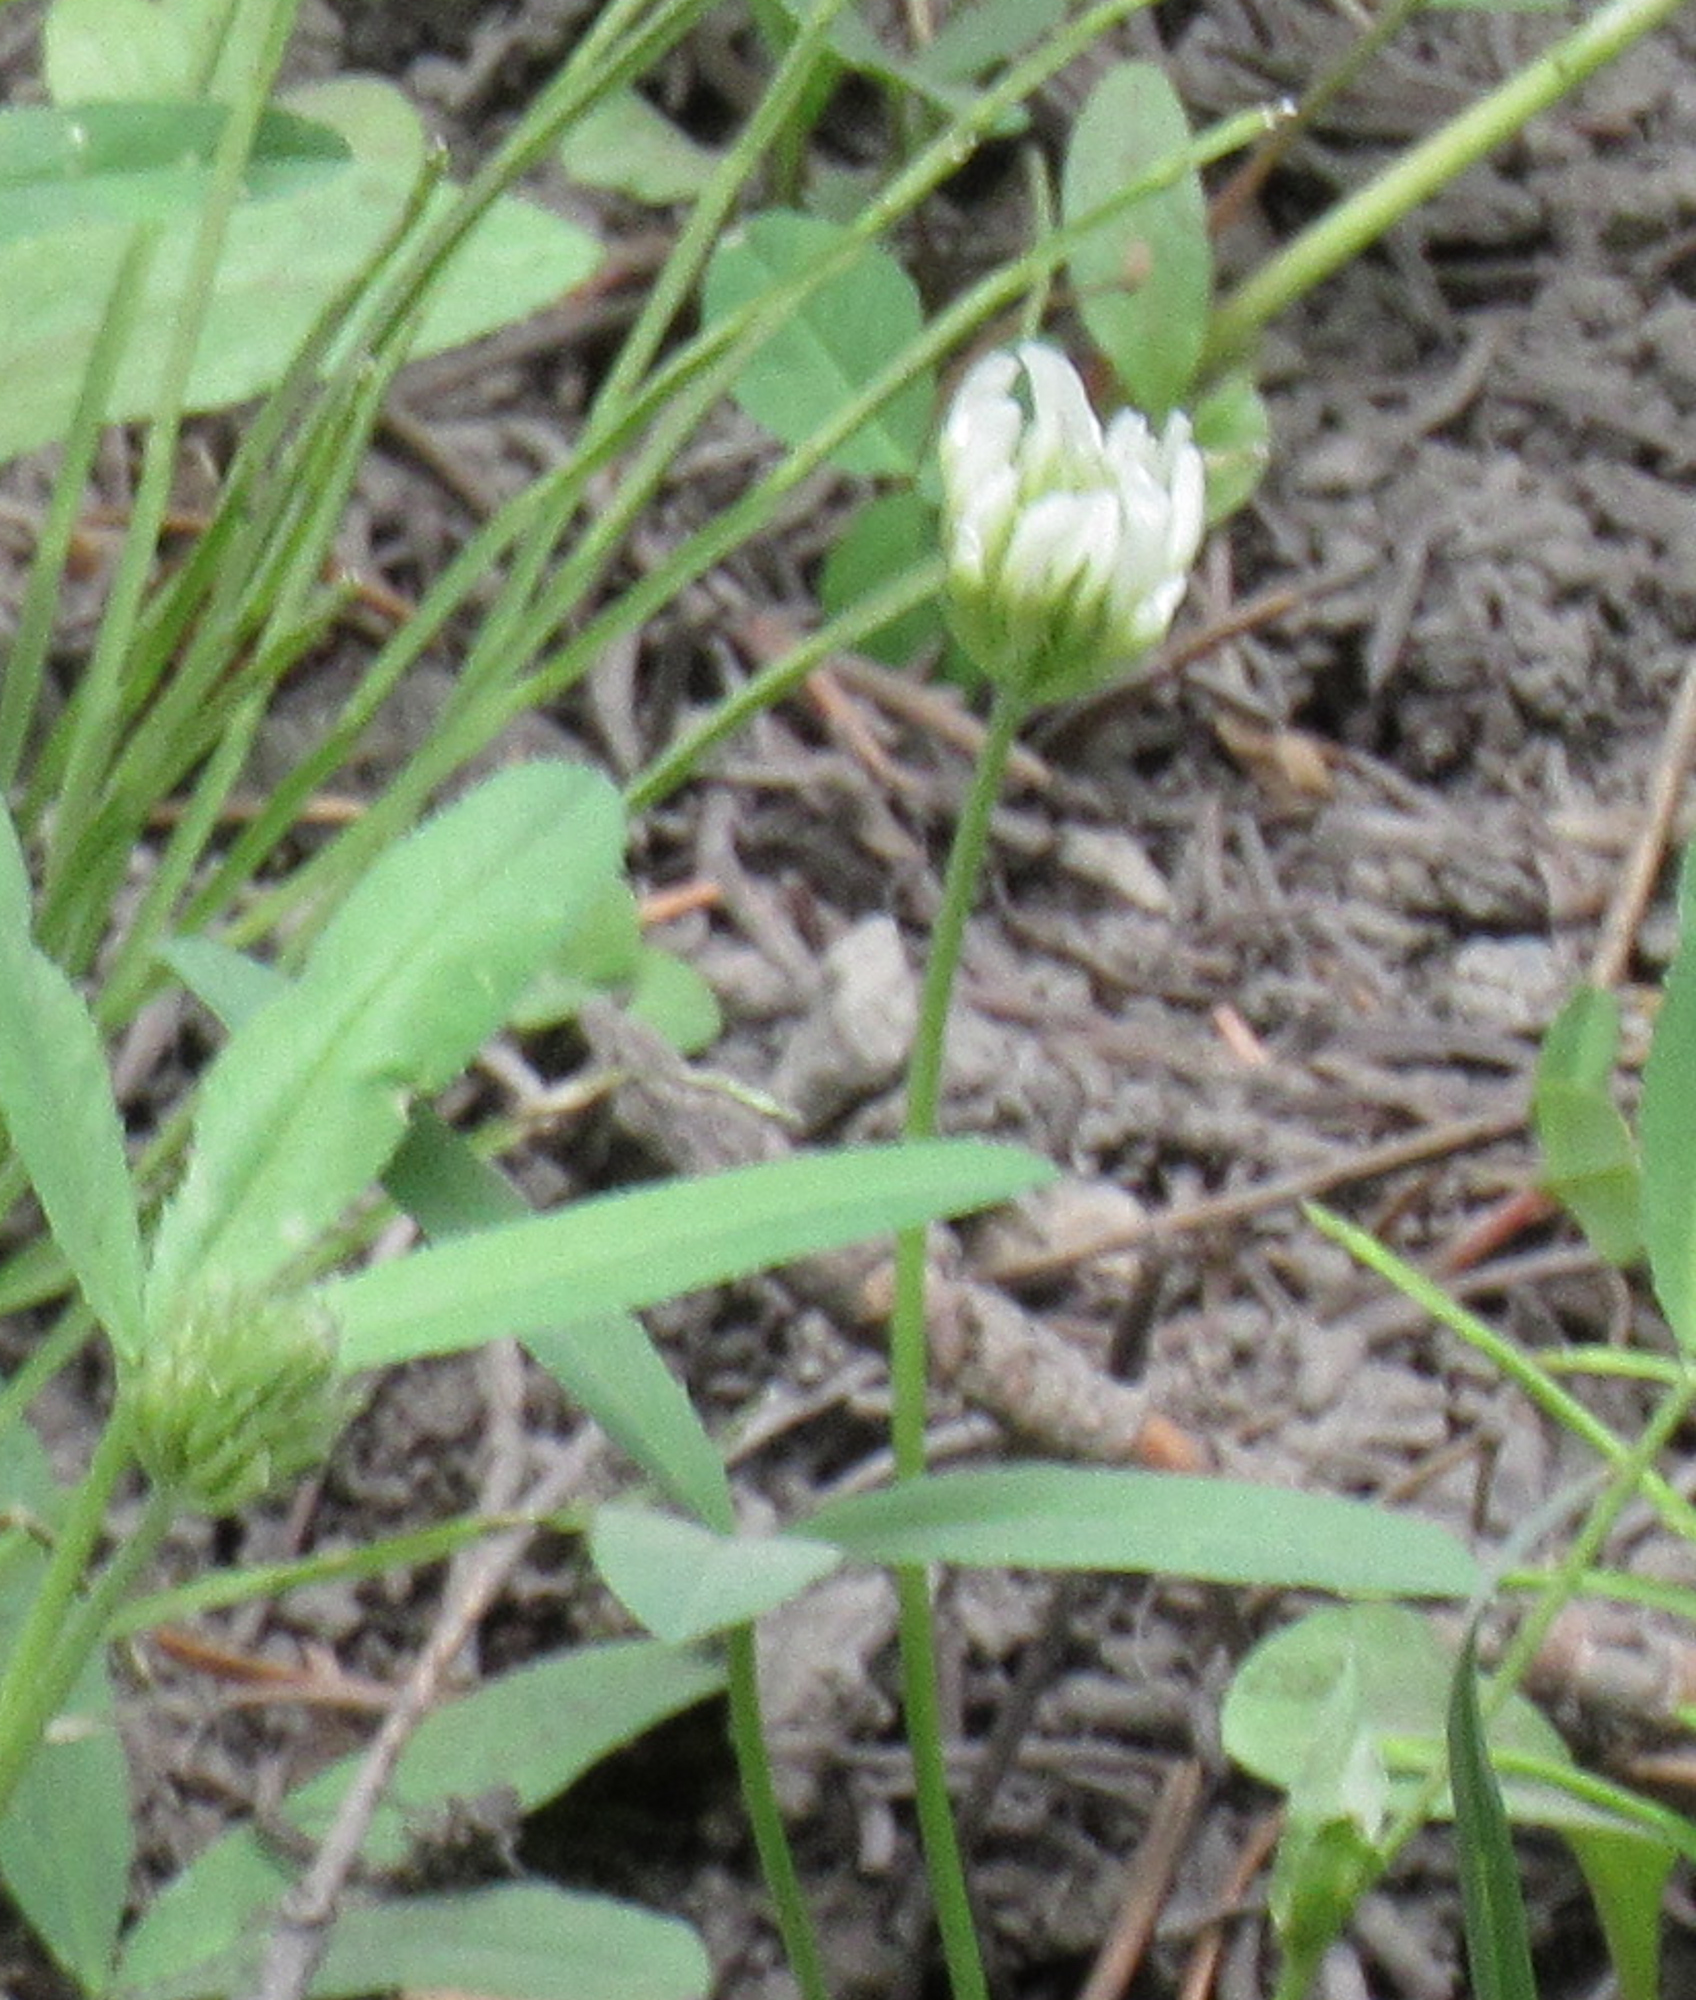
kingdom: Plantae
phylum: Tracheophyta
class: Magnoliopsida
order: Fabales
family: Fabaceae
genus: Trifolium
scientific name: Trifolium longipes
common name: Long-stalk clover
